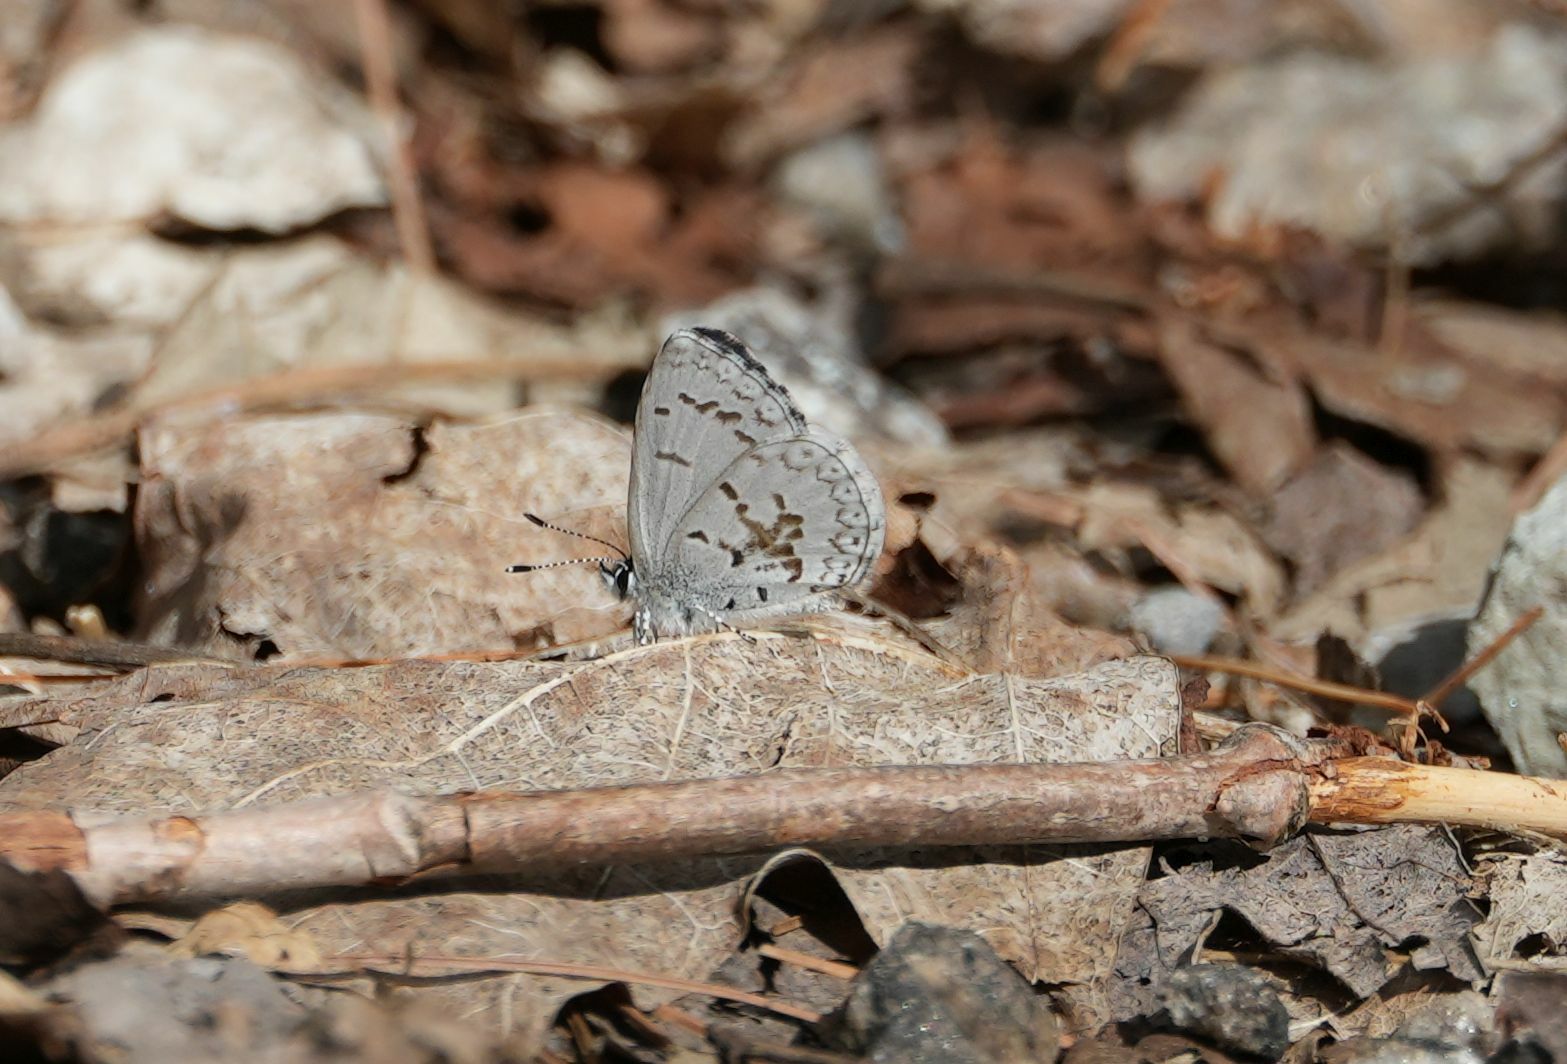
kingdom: Animalia
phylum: Arthropoda
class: Insecta
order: Lepidoptera
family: Lycaenidae
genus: Celastrina
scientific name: Celastrina lucia
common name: Lucia azure
